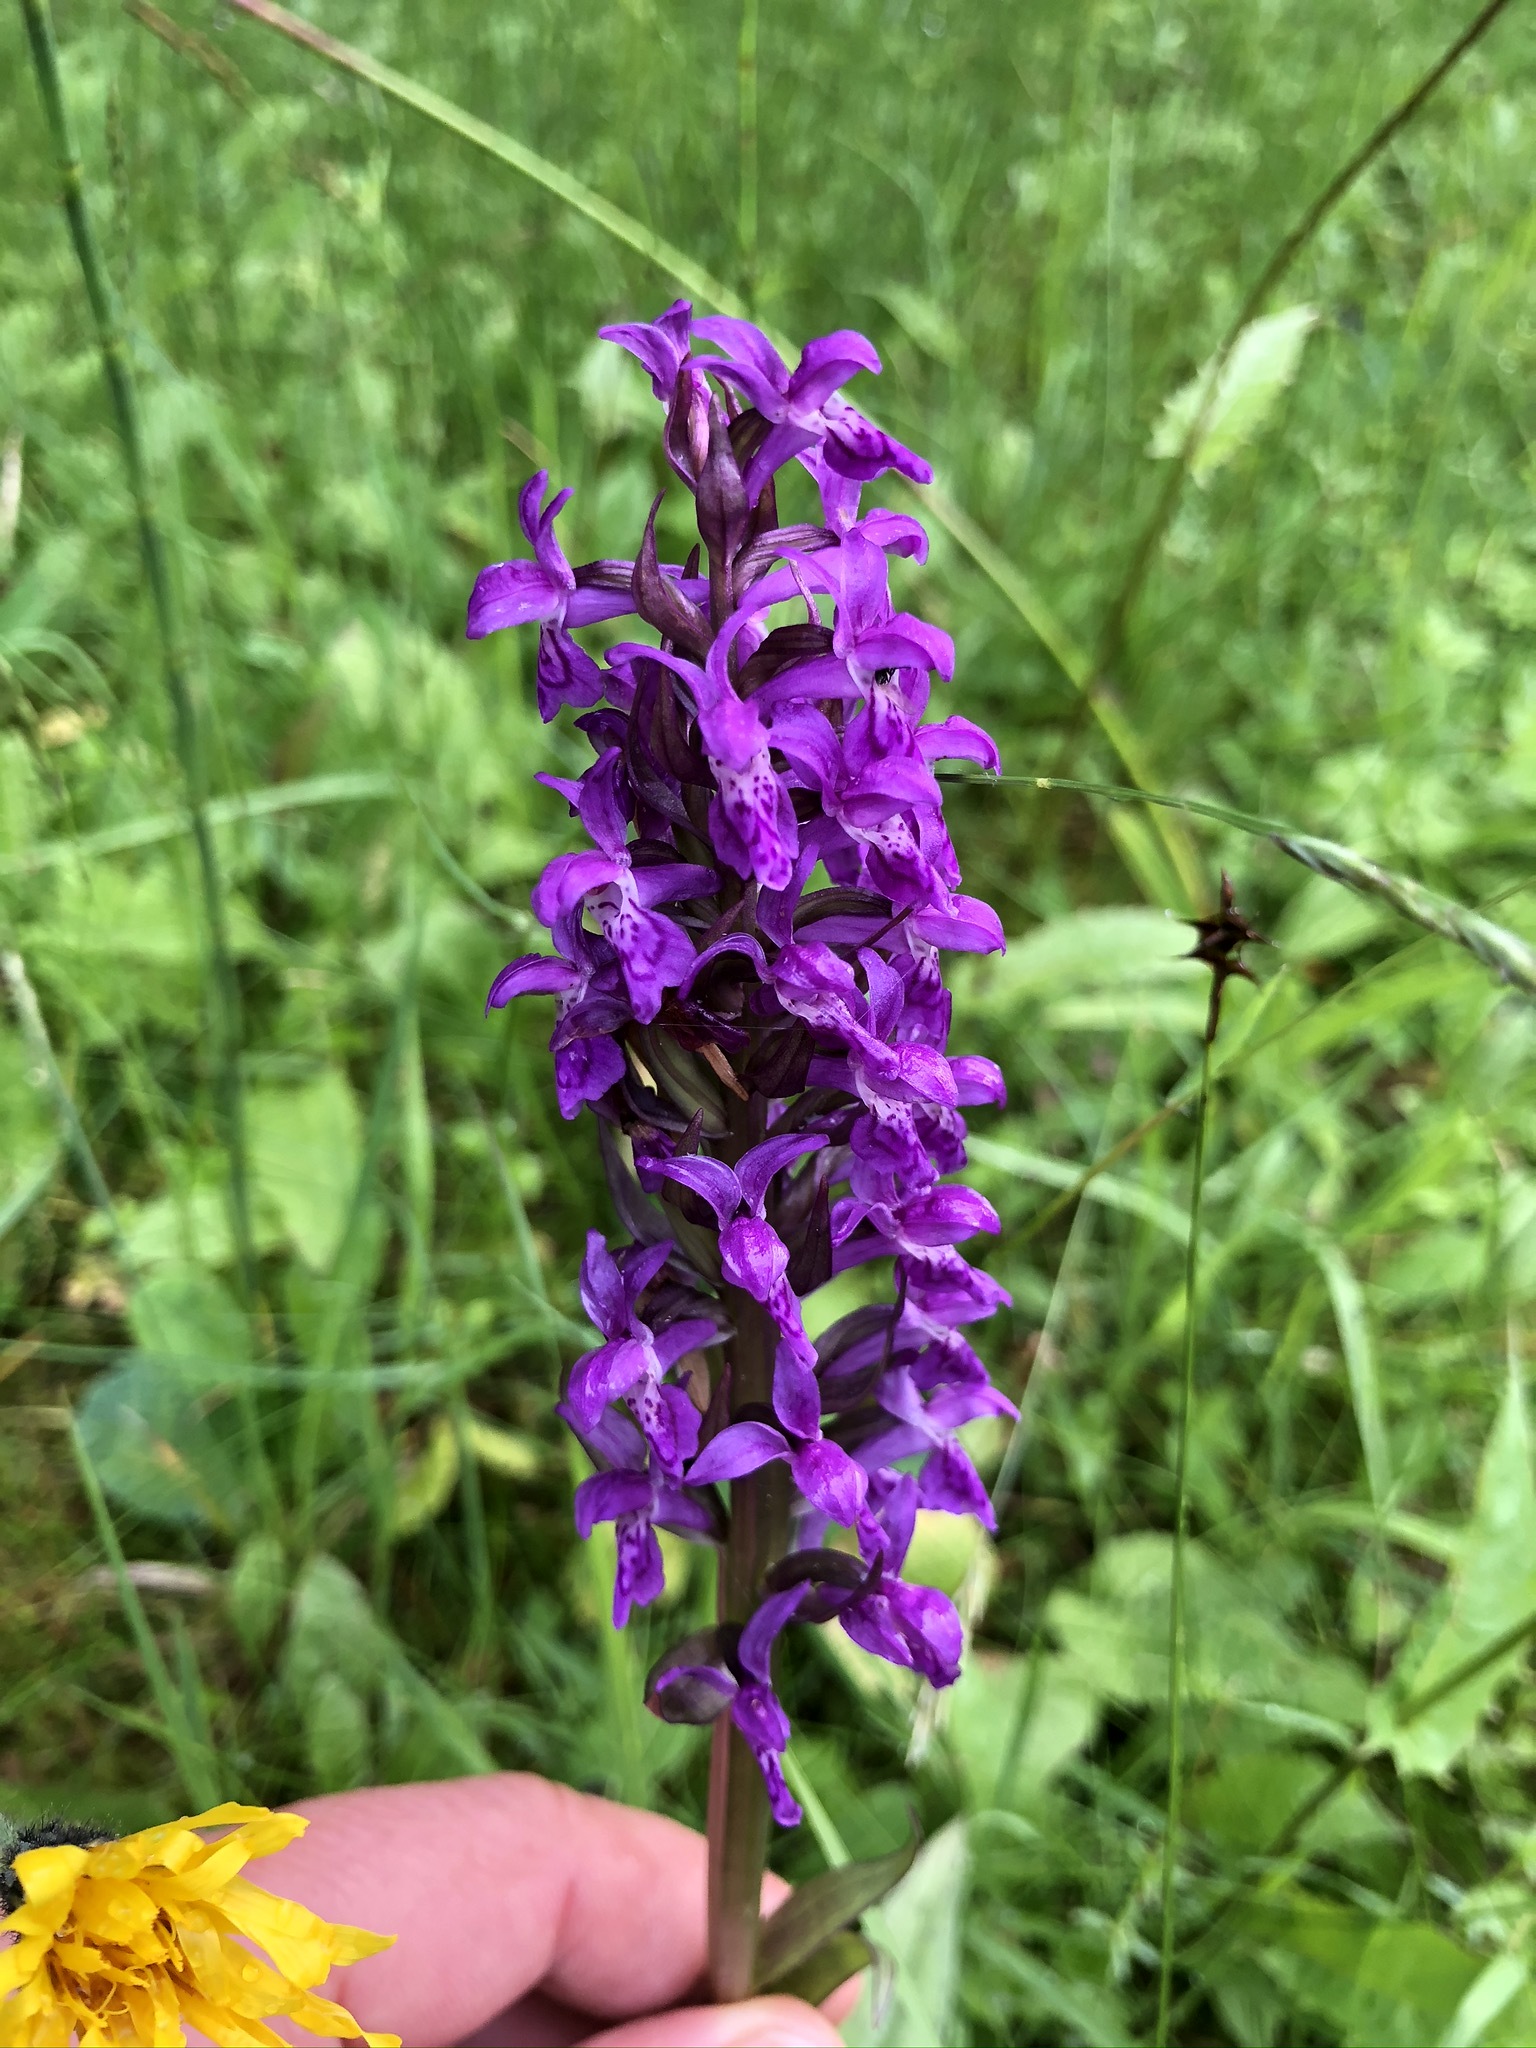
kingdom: Plantae
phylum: Tracheophyta
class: Liliopsida
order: Asparagales
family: Orchidaceae
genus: Dactylorhiza
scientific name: Dactylorhiza majalis
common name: Marsh orchid
